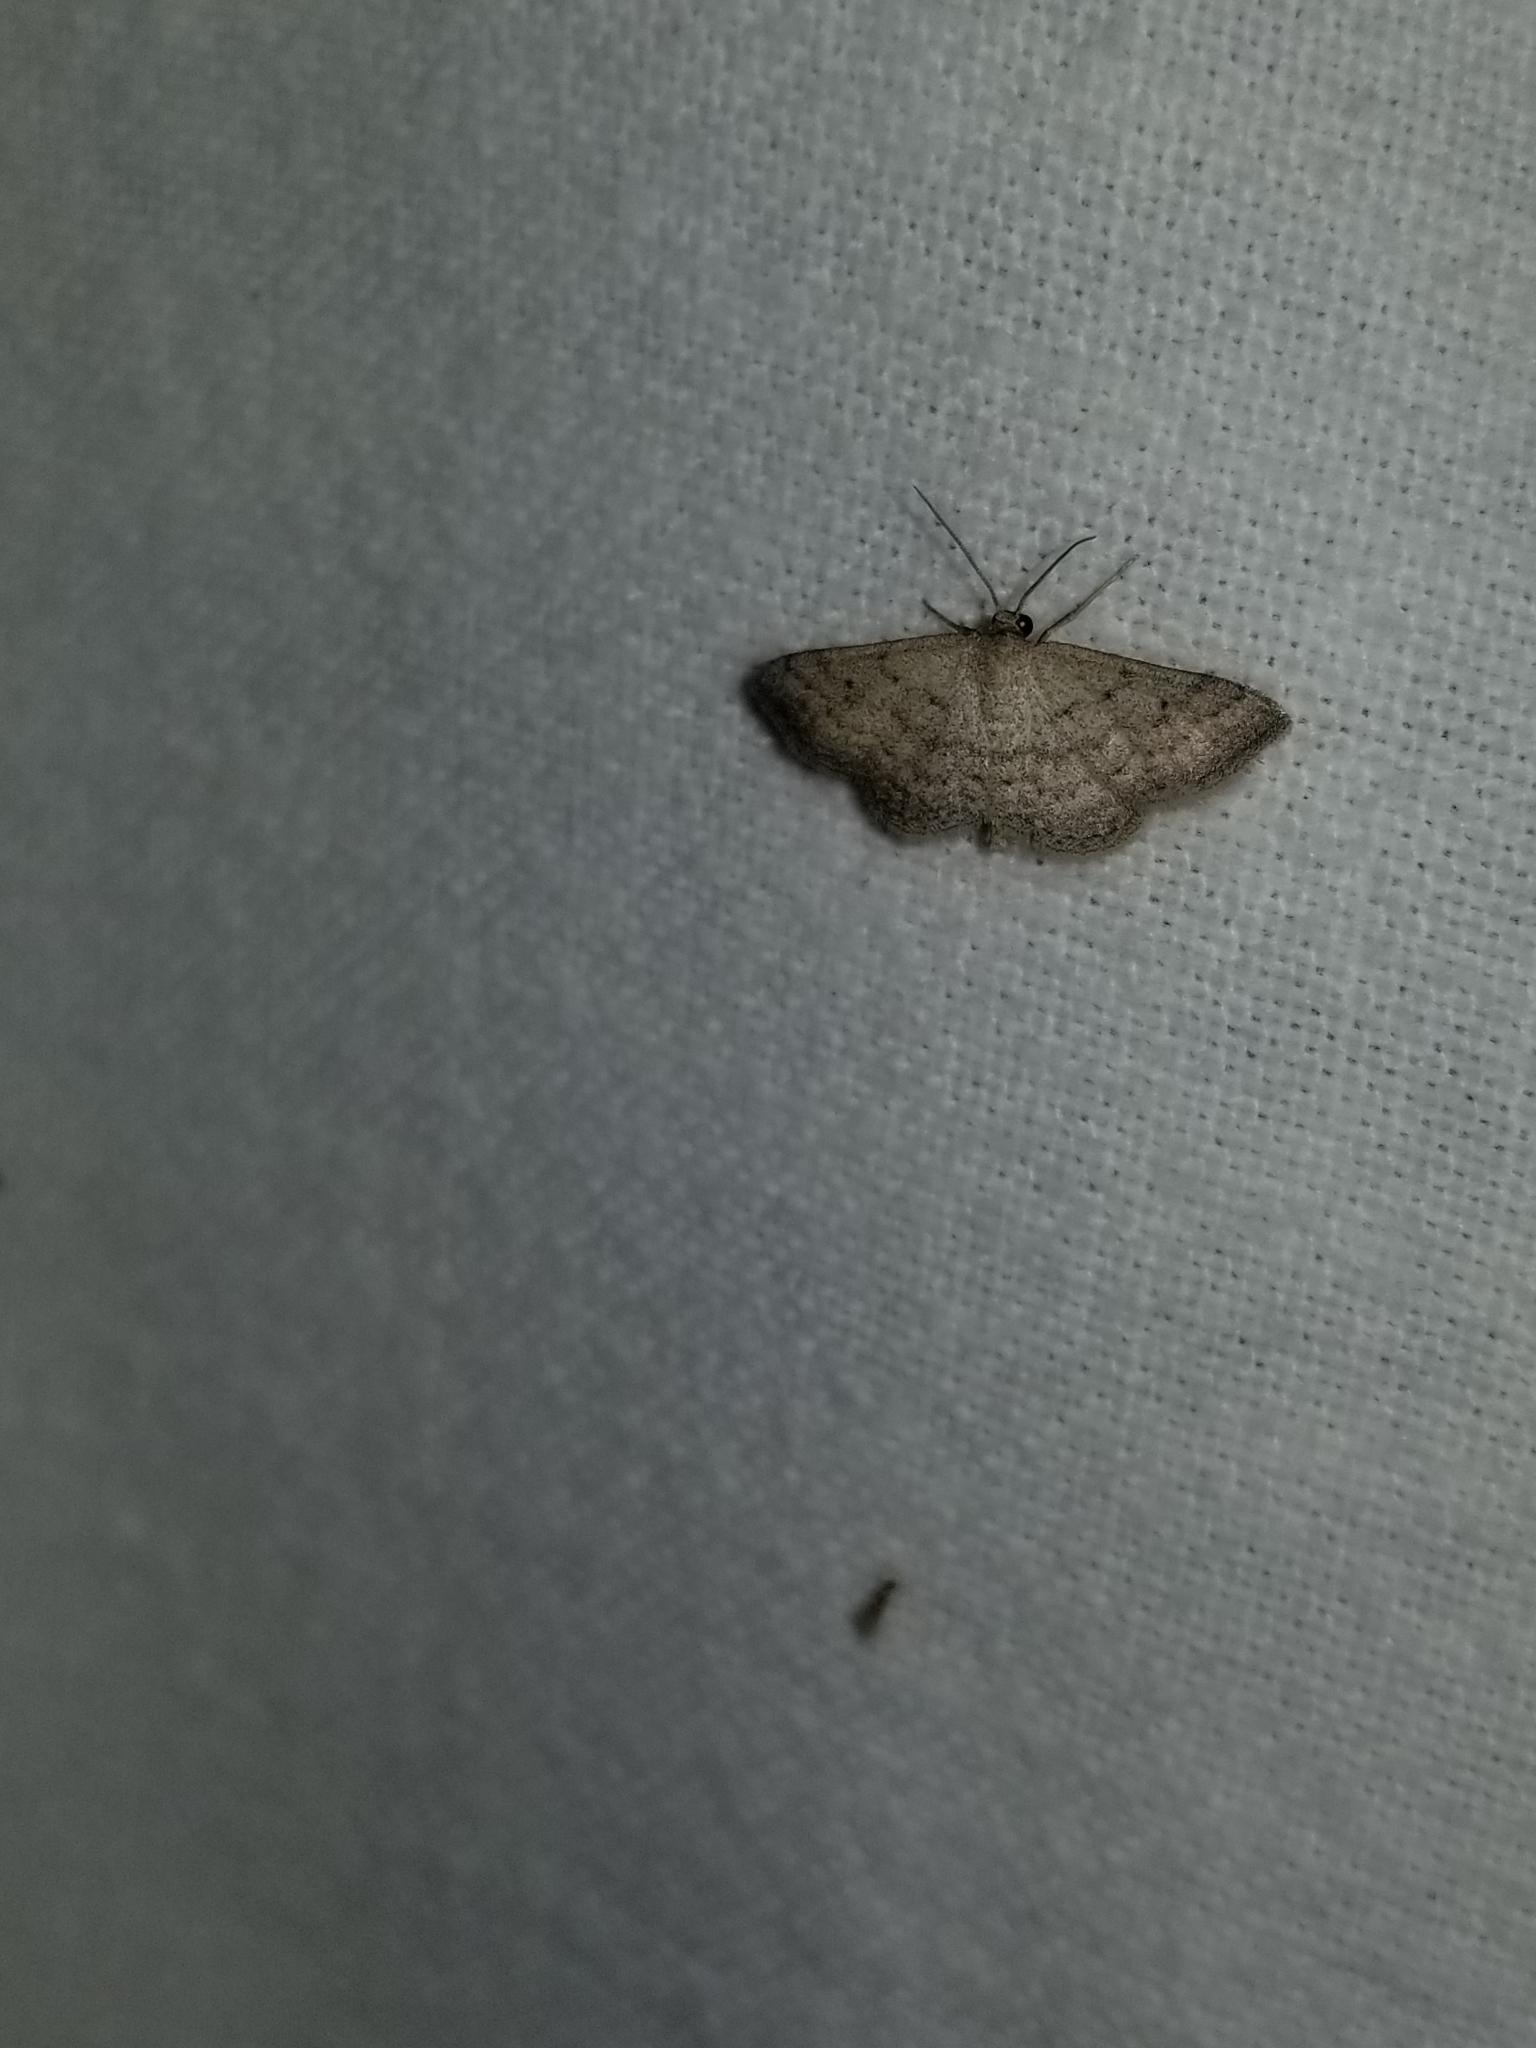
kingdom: Animalia
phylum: Arthropoda
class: Insecta
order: Lepidoptera
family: Geometridae
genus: Lobocleta
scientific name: Lobocleta ossularia
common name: Drab brown wave
